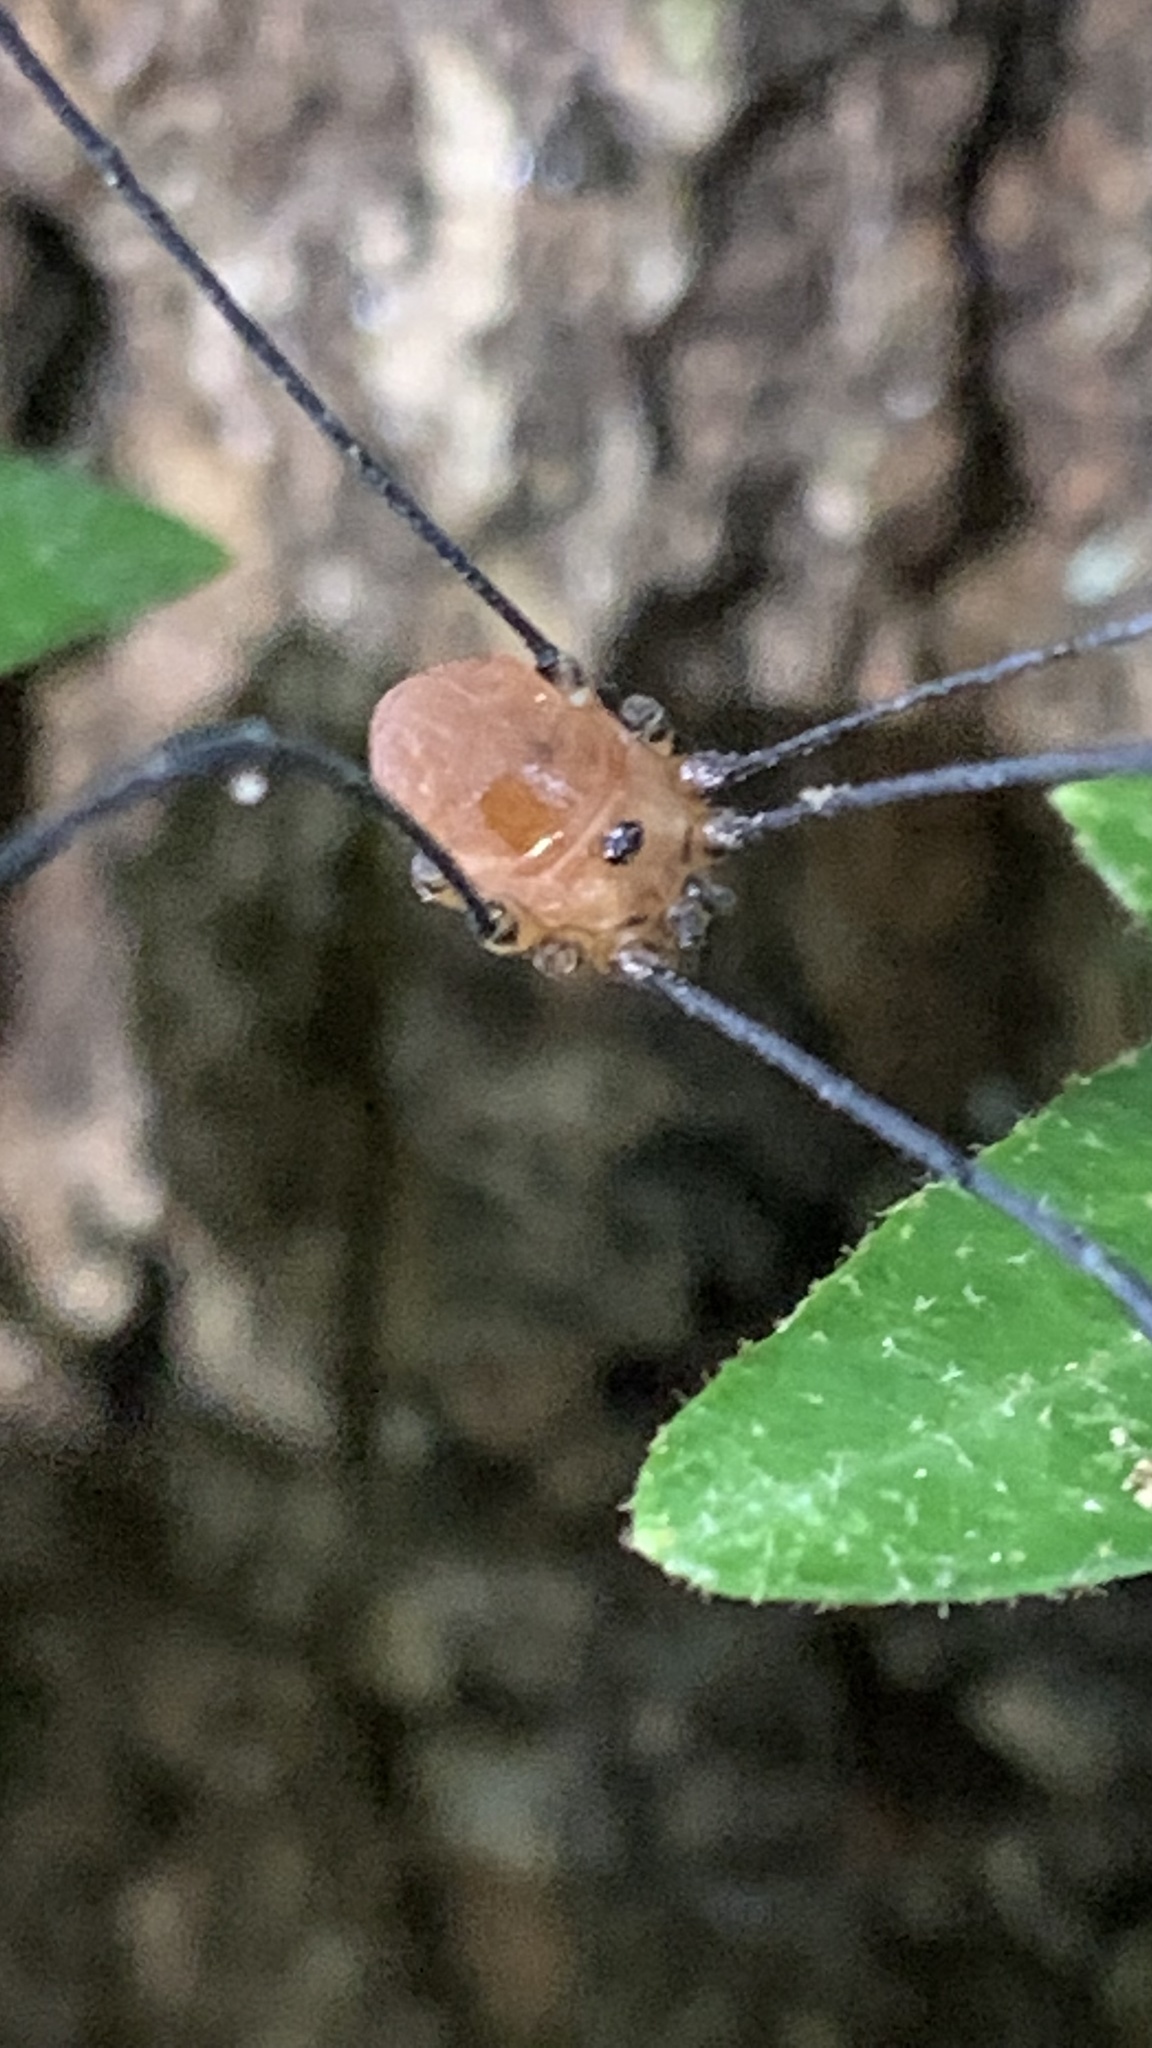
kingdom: Animalia
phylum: Arthropoda
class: Arachnida
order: Opiliones
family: Sclerosomatidae
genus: Leiobunum
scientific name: Leiobunum rotundum
